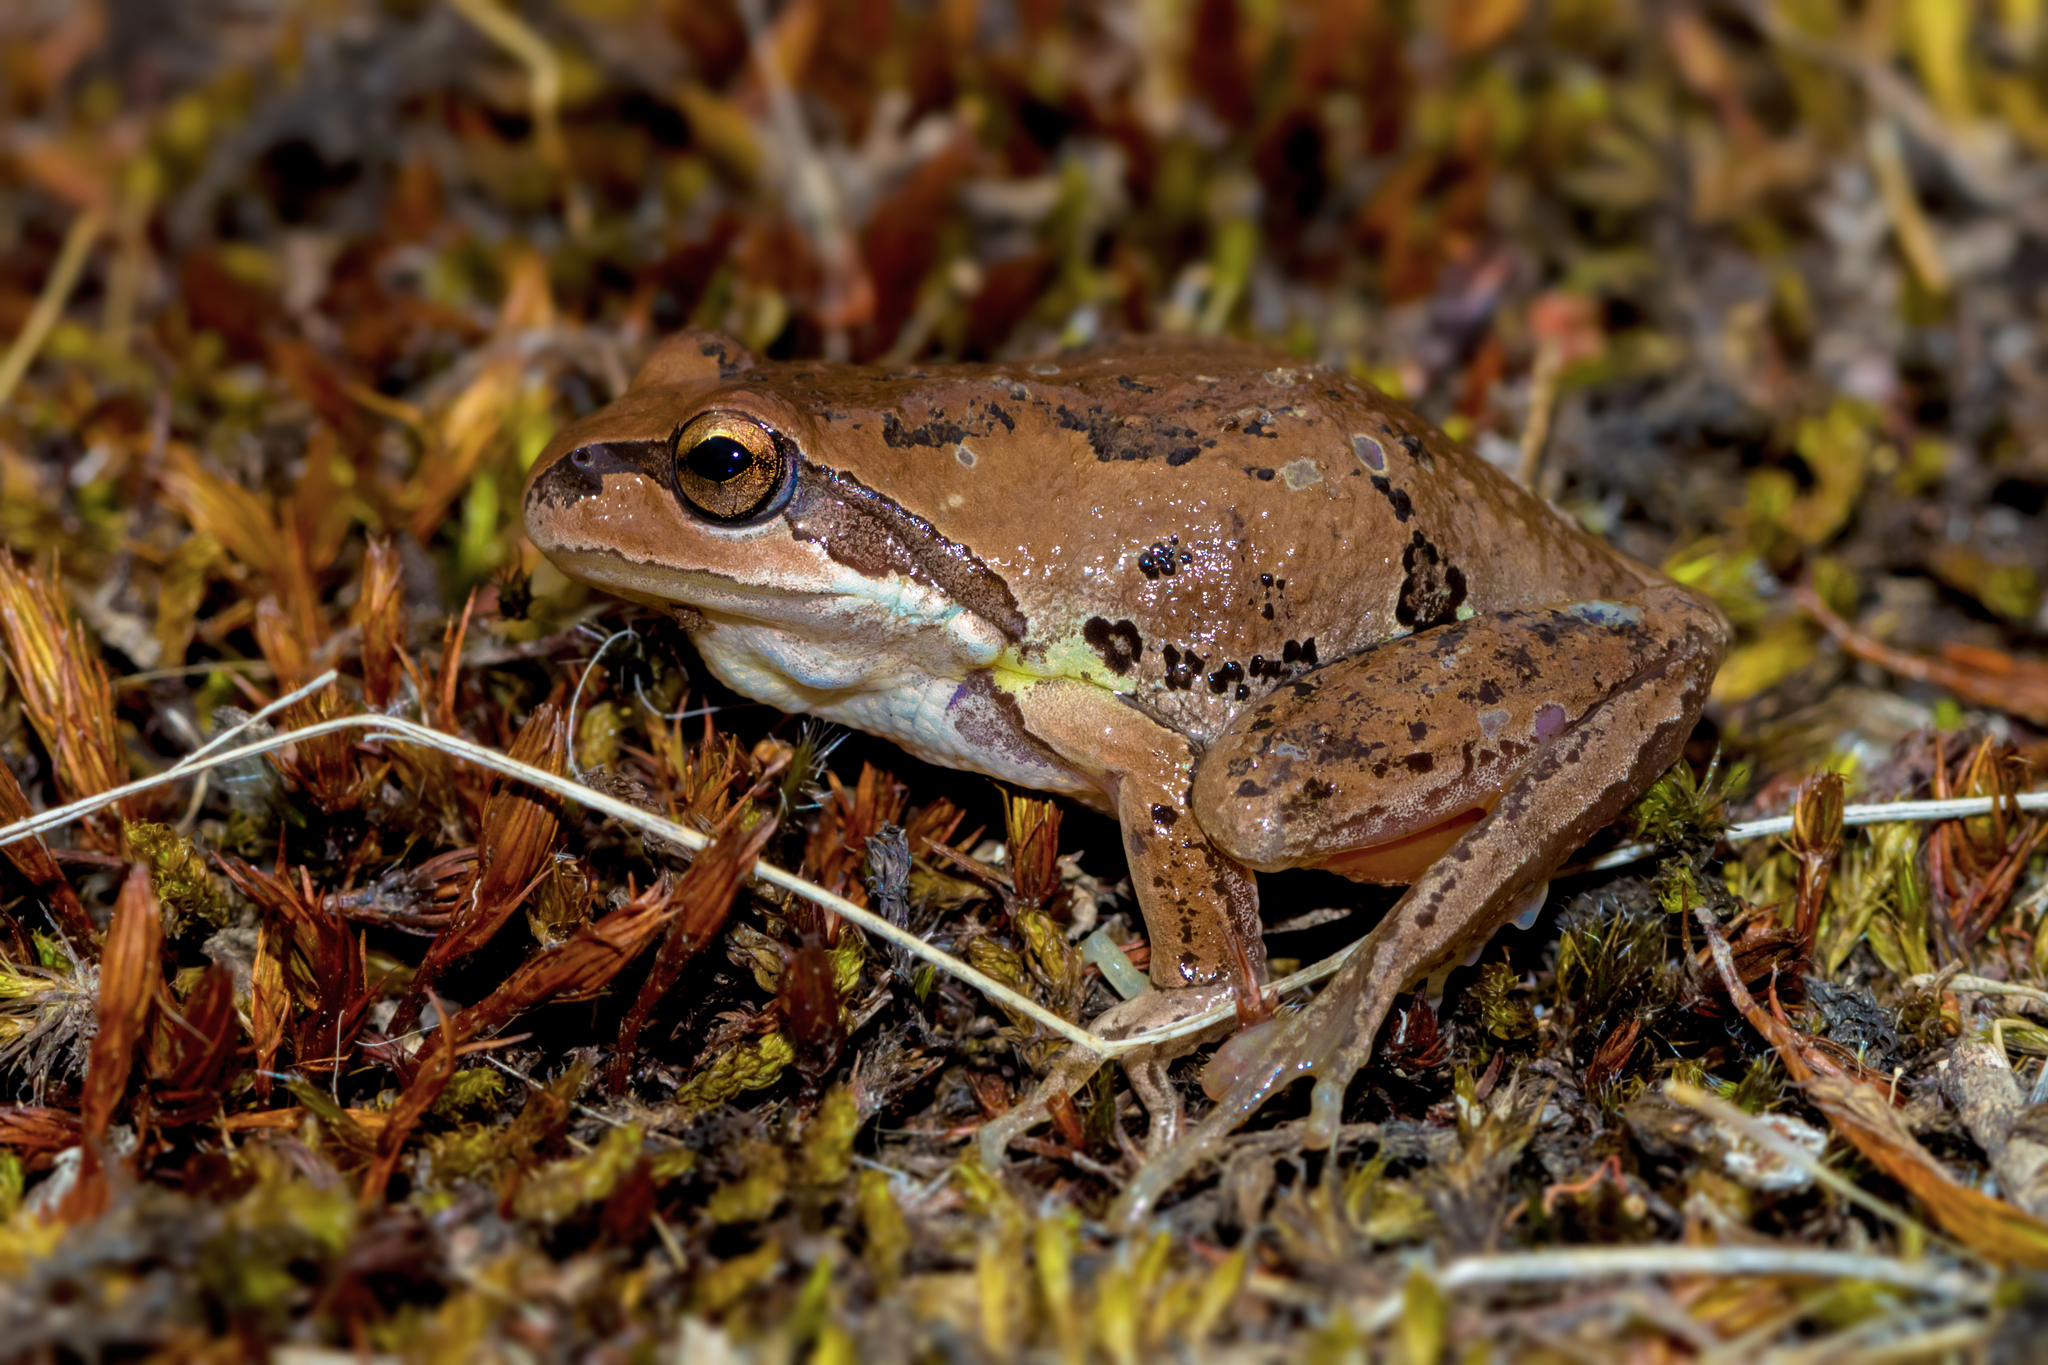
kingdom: Animalia
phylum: Chordata
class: Amphibia
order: Anura
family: Pelodryadidae
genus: Litoria
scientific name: Litoria verreauxii
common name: Alpine tree frog
